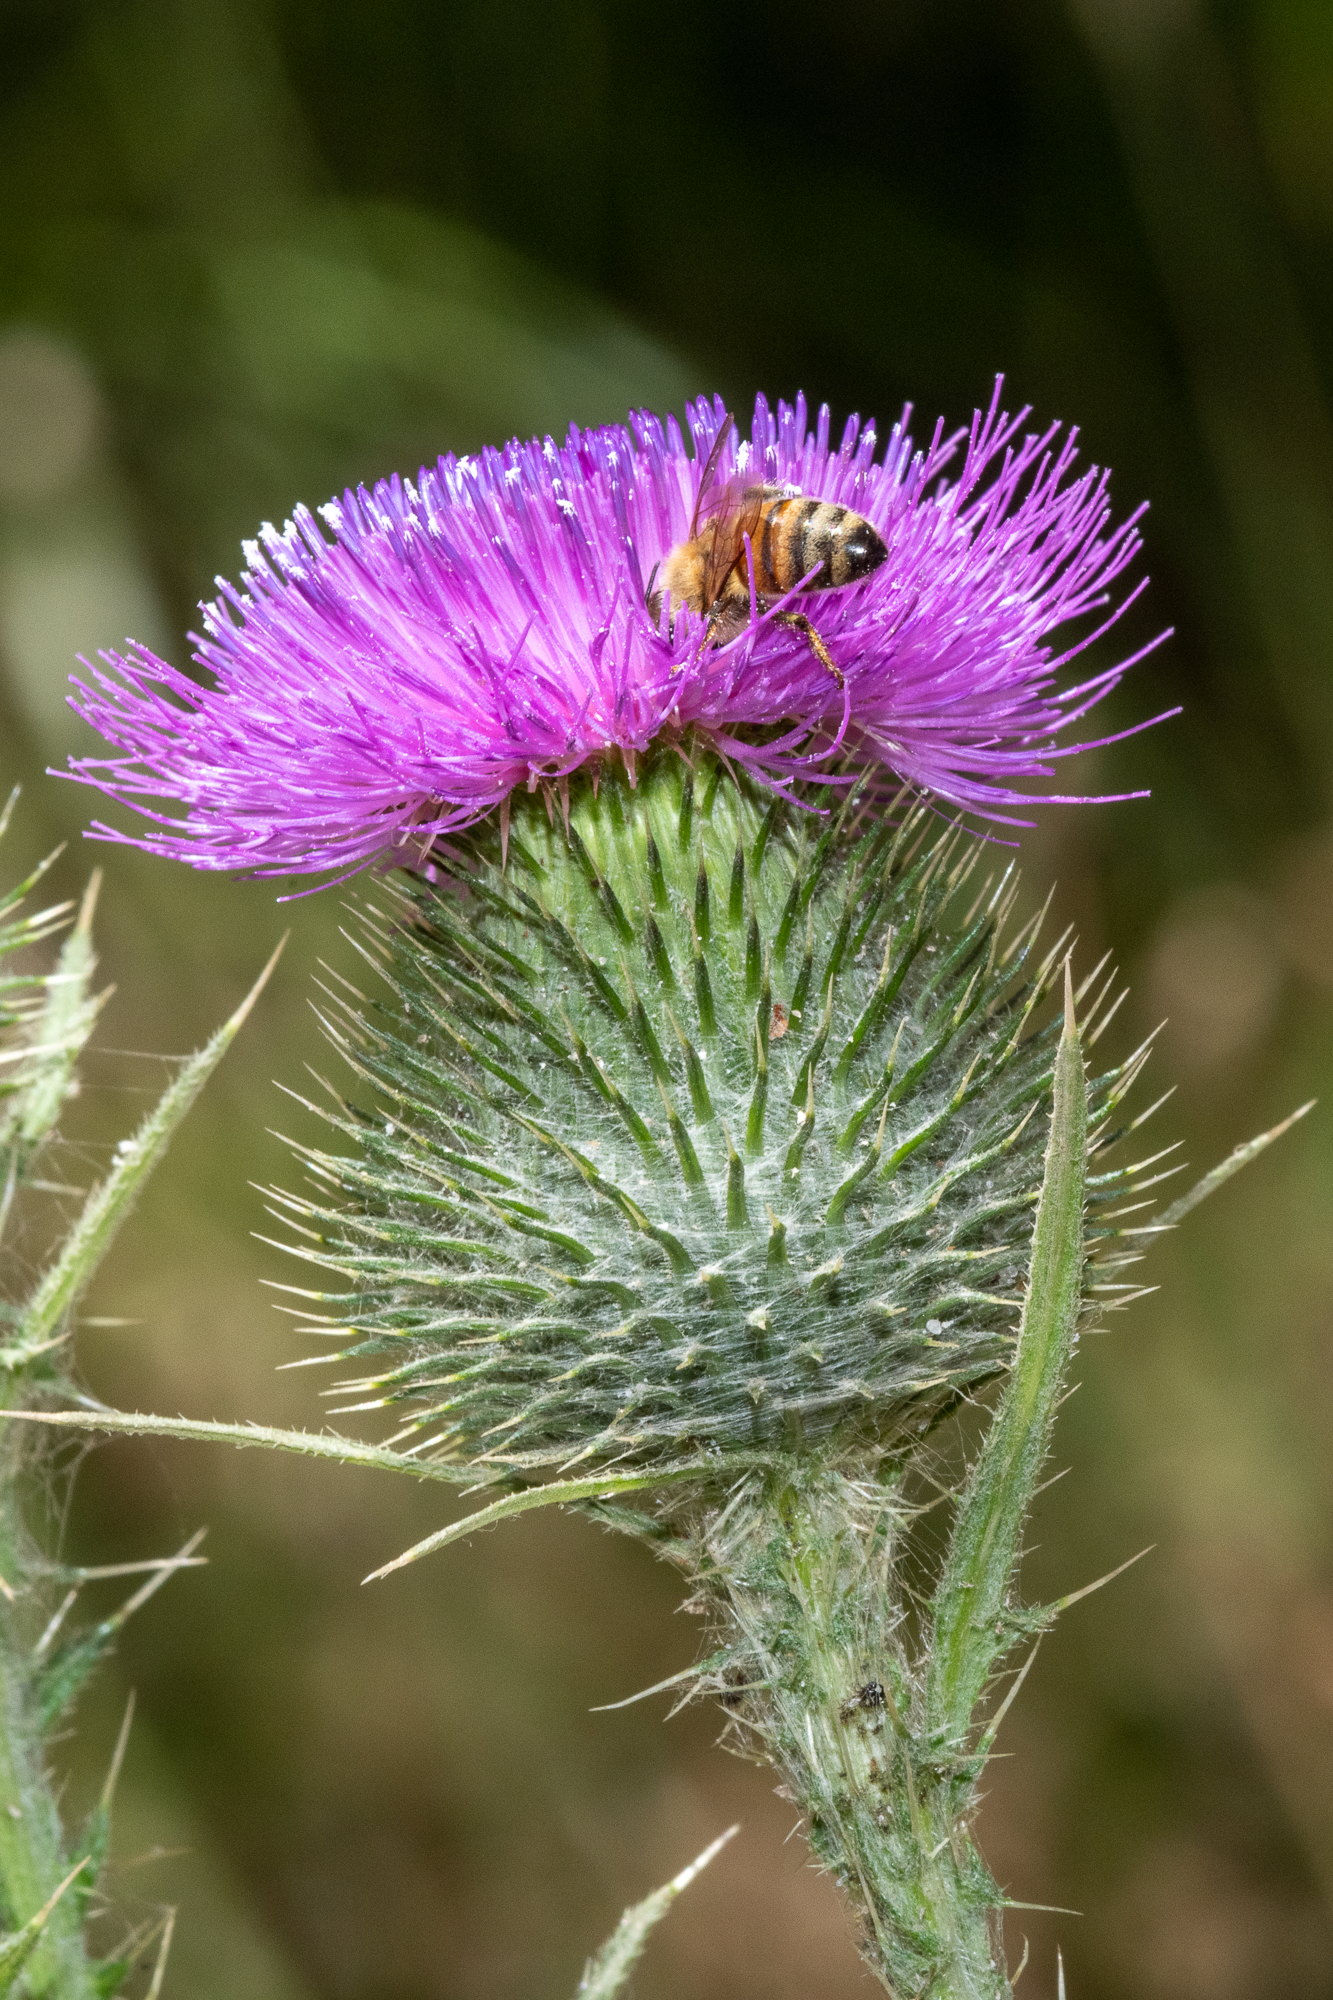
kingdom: Plantae
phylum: Tracheophyta
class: Magnoliopsida
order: Asterales
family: Asteraceae
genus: Cirsium
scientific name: Cirsium vulgare
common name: Bull thistle
